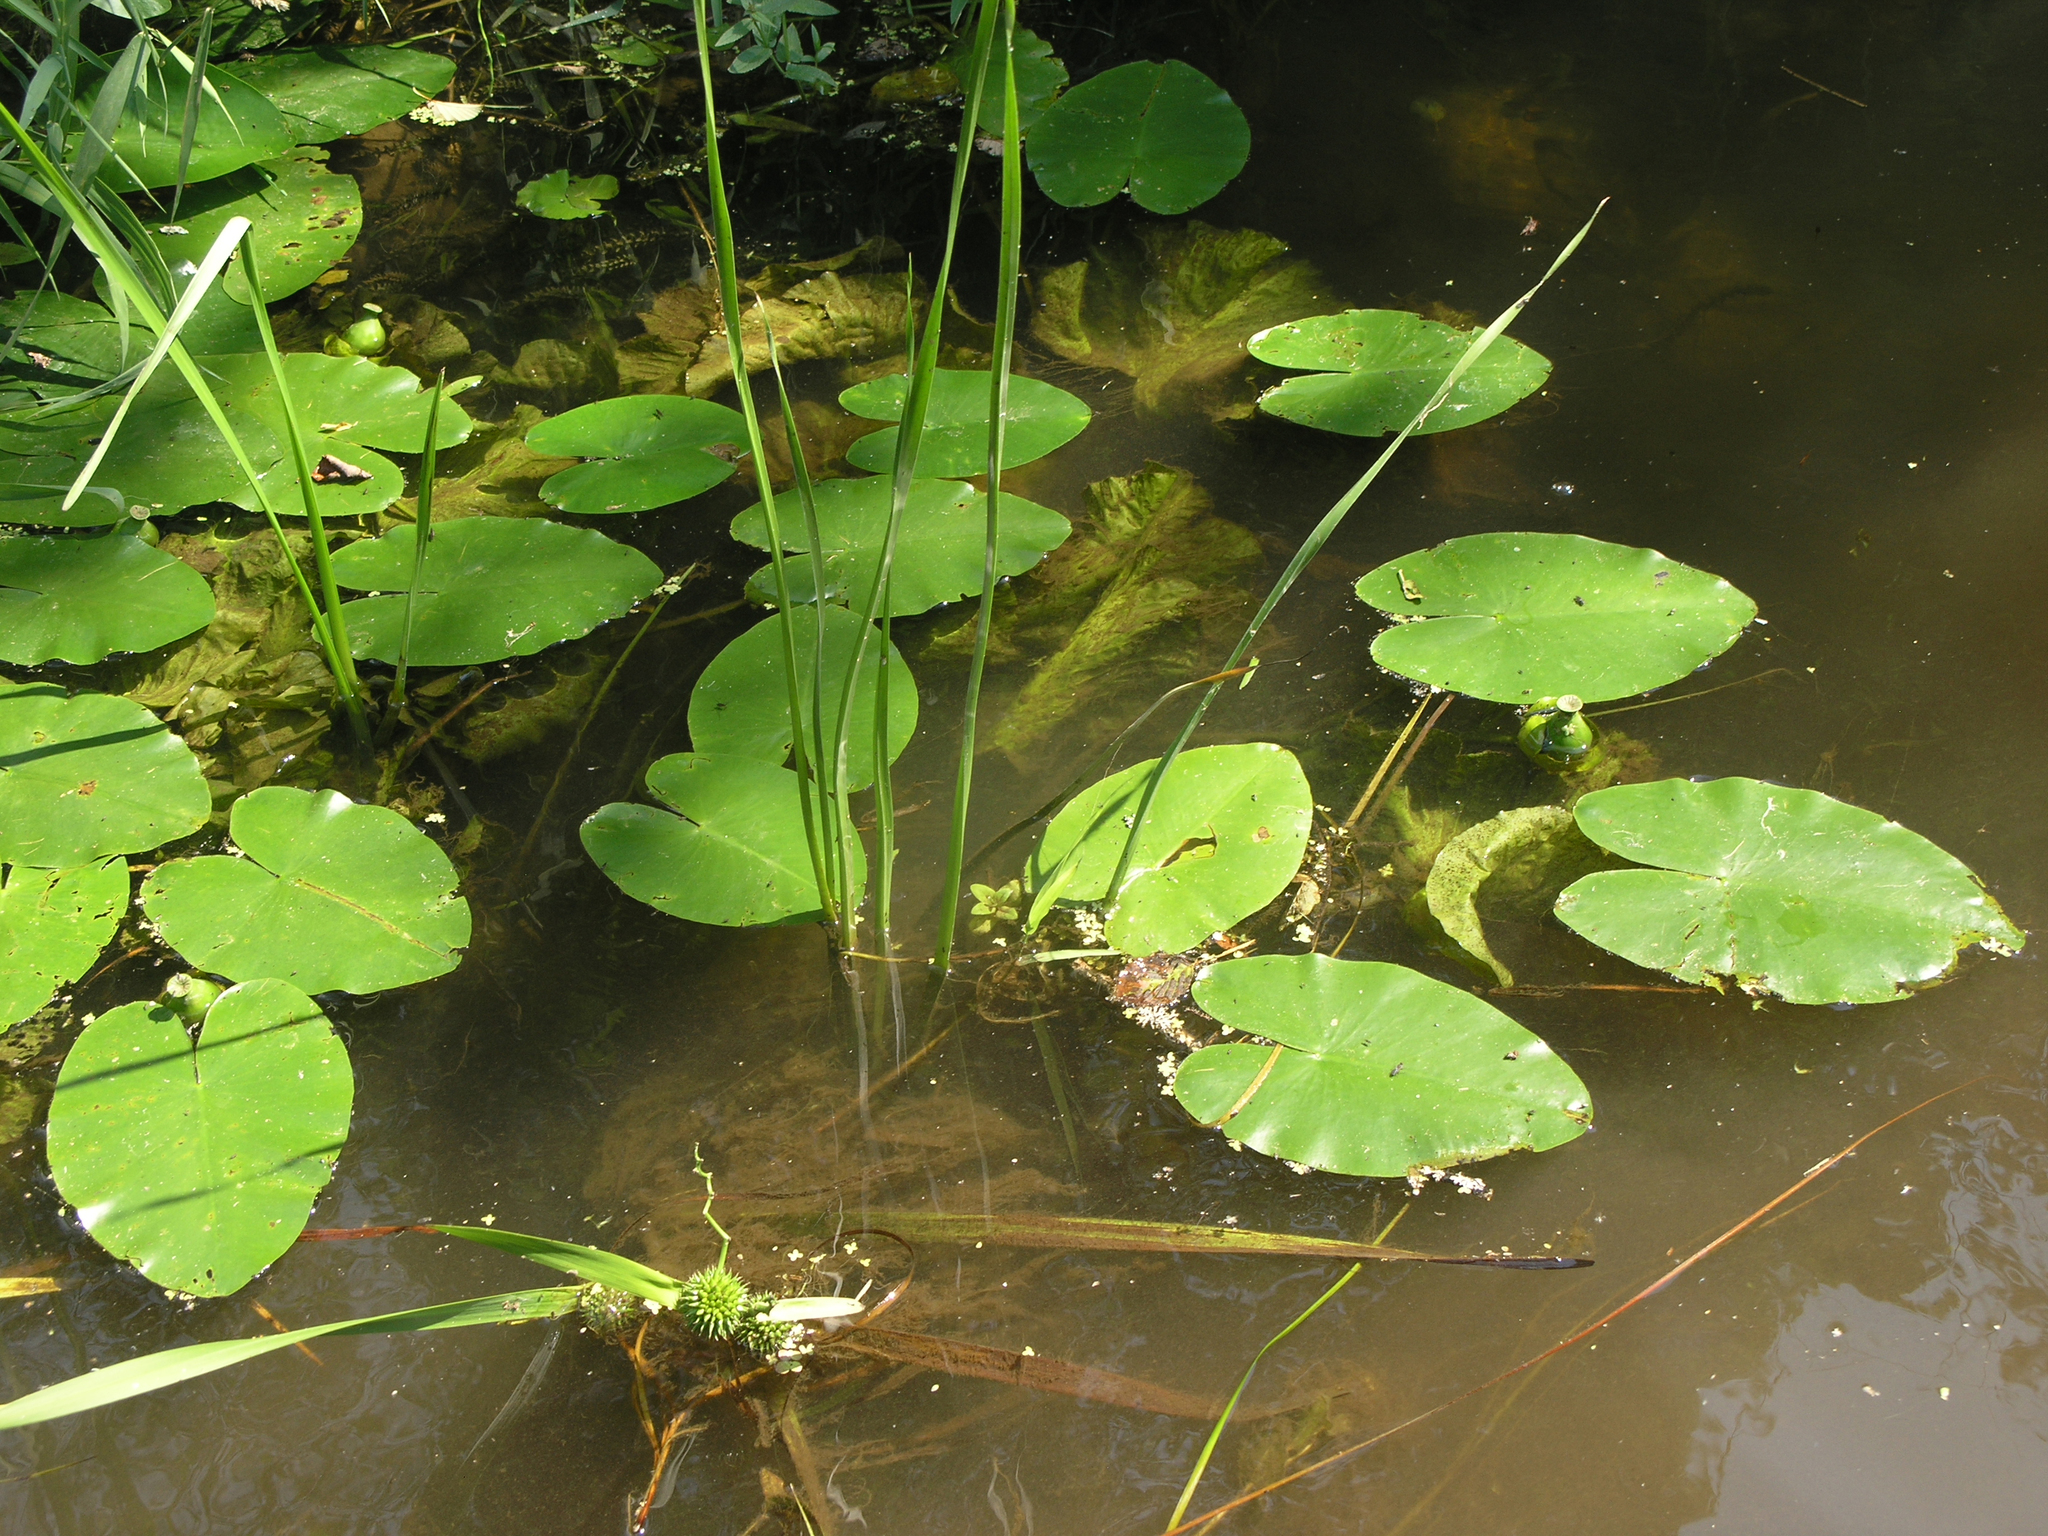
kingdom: Plantae
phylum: Tracheophyta
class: Magnoliopsida
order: Nymphaeales
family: Nymphaeaceae
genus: Nuphar
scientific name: Nuphar lutea
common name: Yellow water-lily
